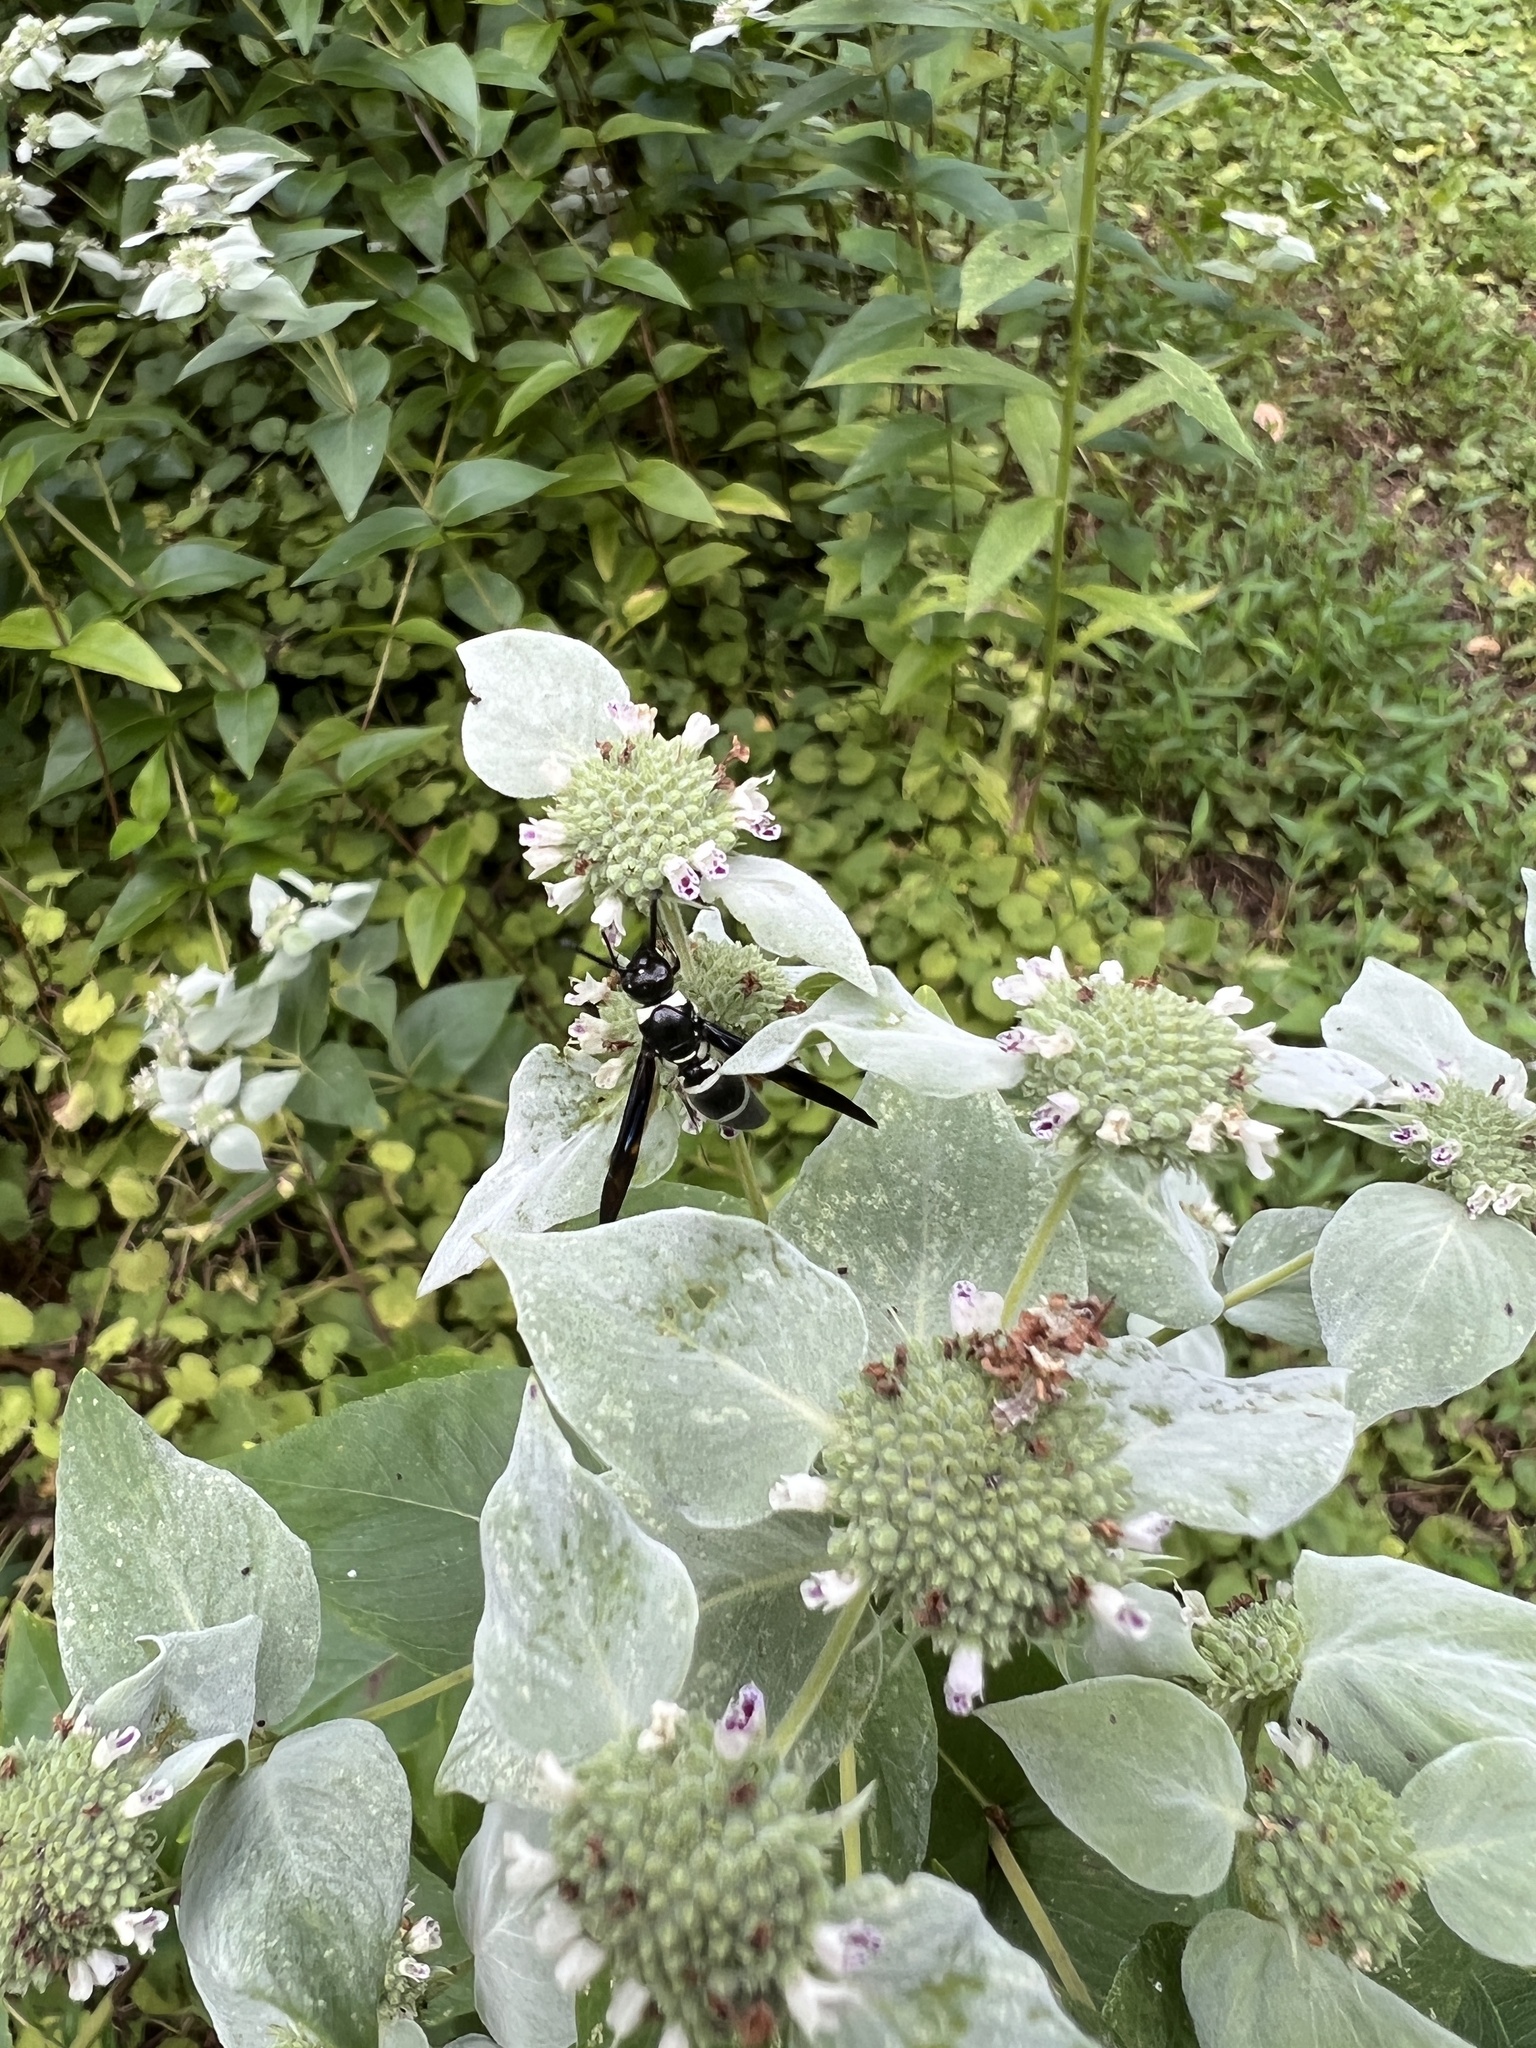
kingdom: Animalia
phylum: Arthropoda
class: Insecta
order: Hymenoptera
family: Eumenidae
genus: Pseudodynerus
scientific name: Pseudodynerus quadrisectus
